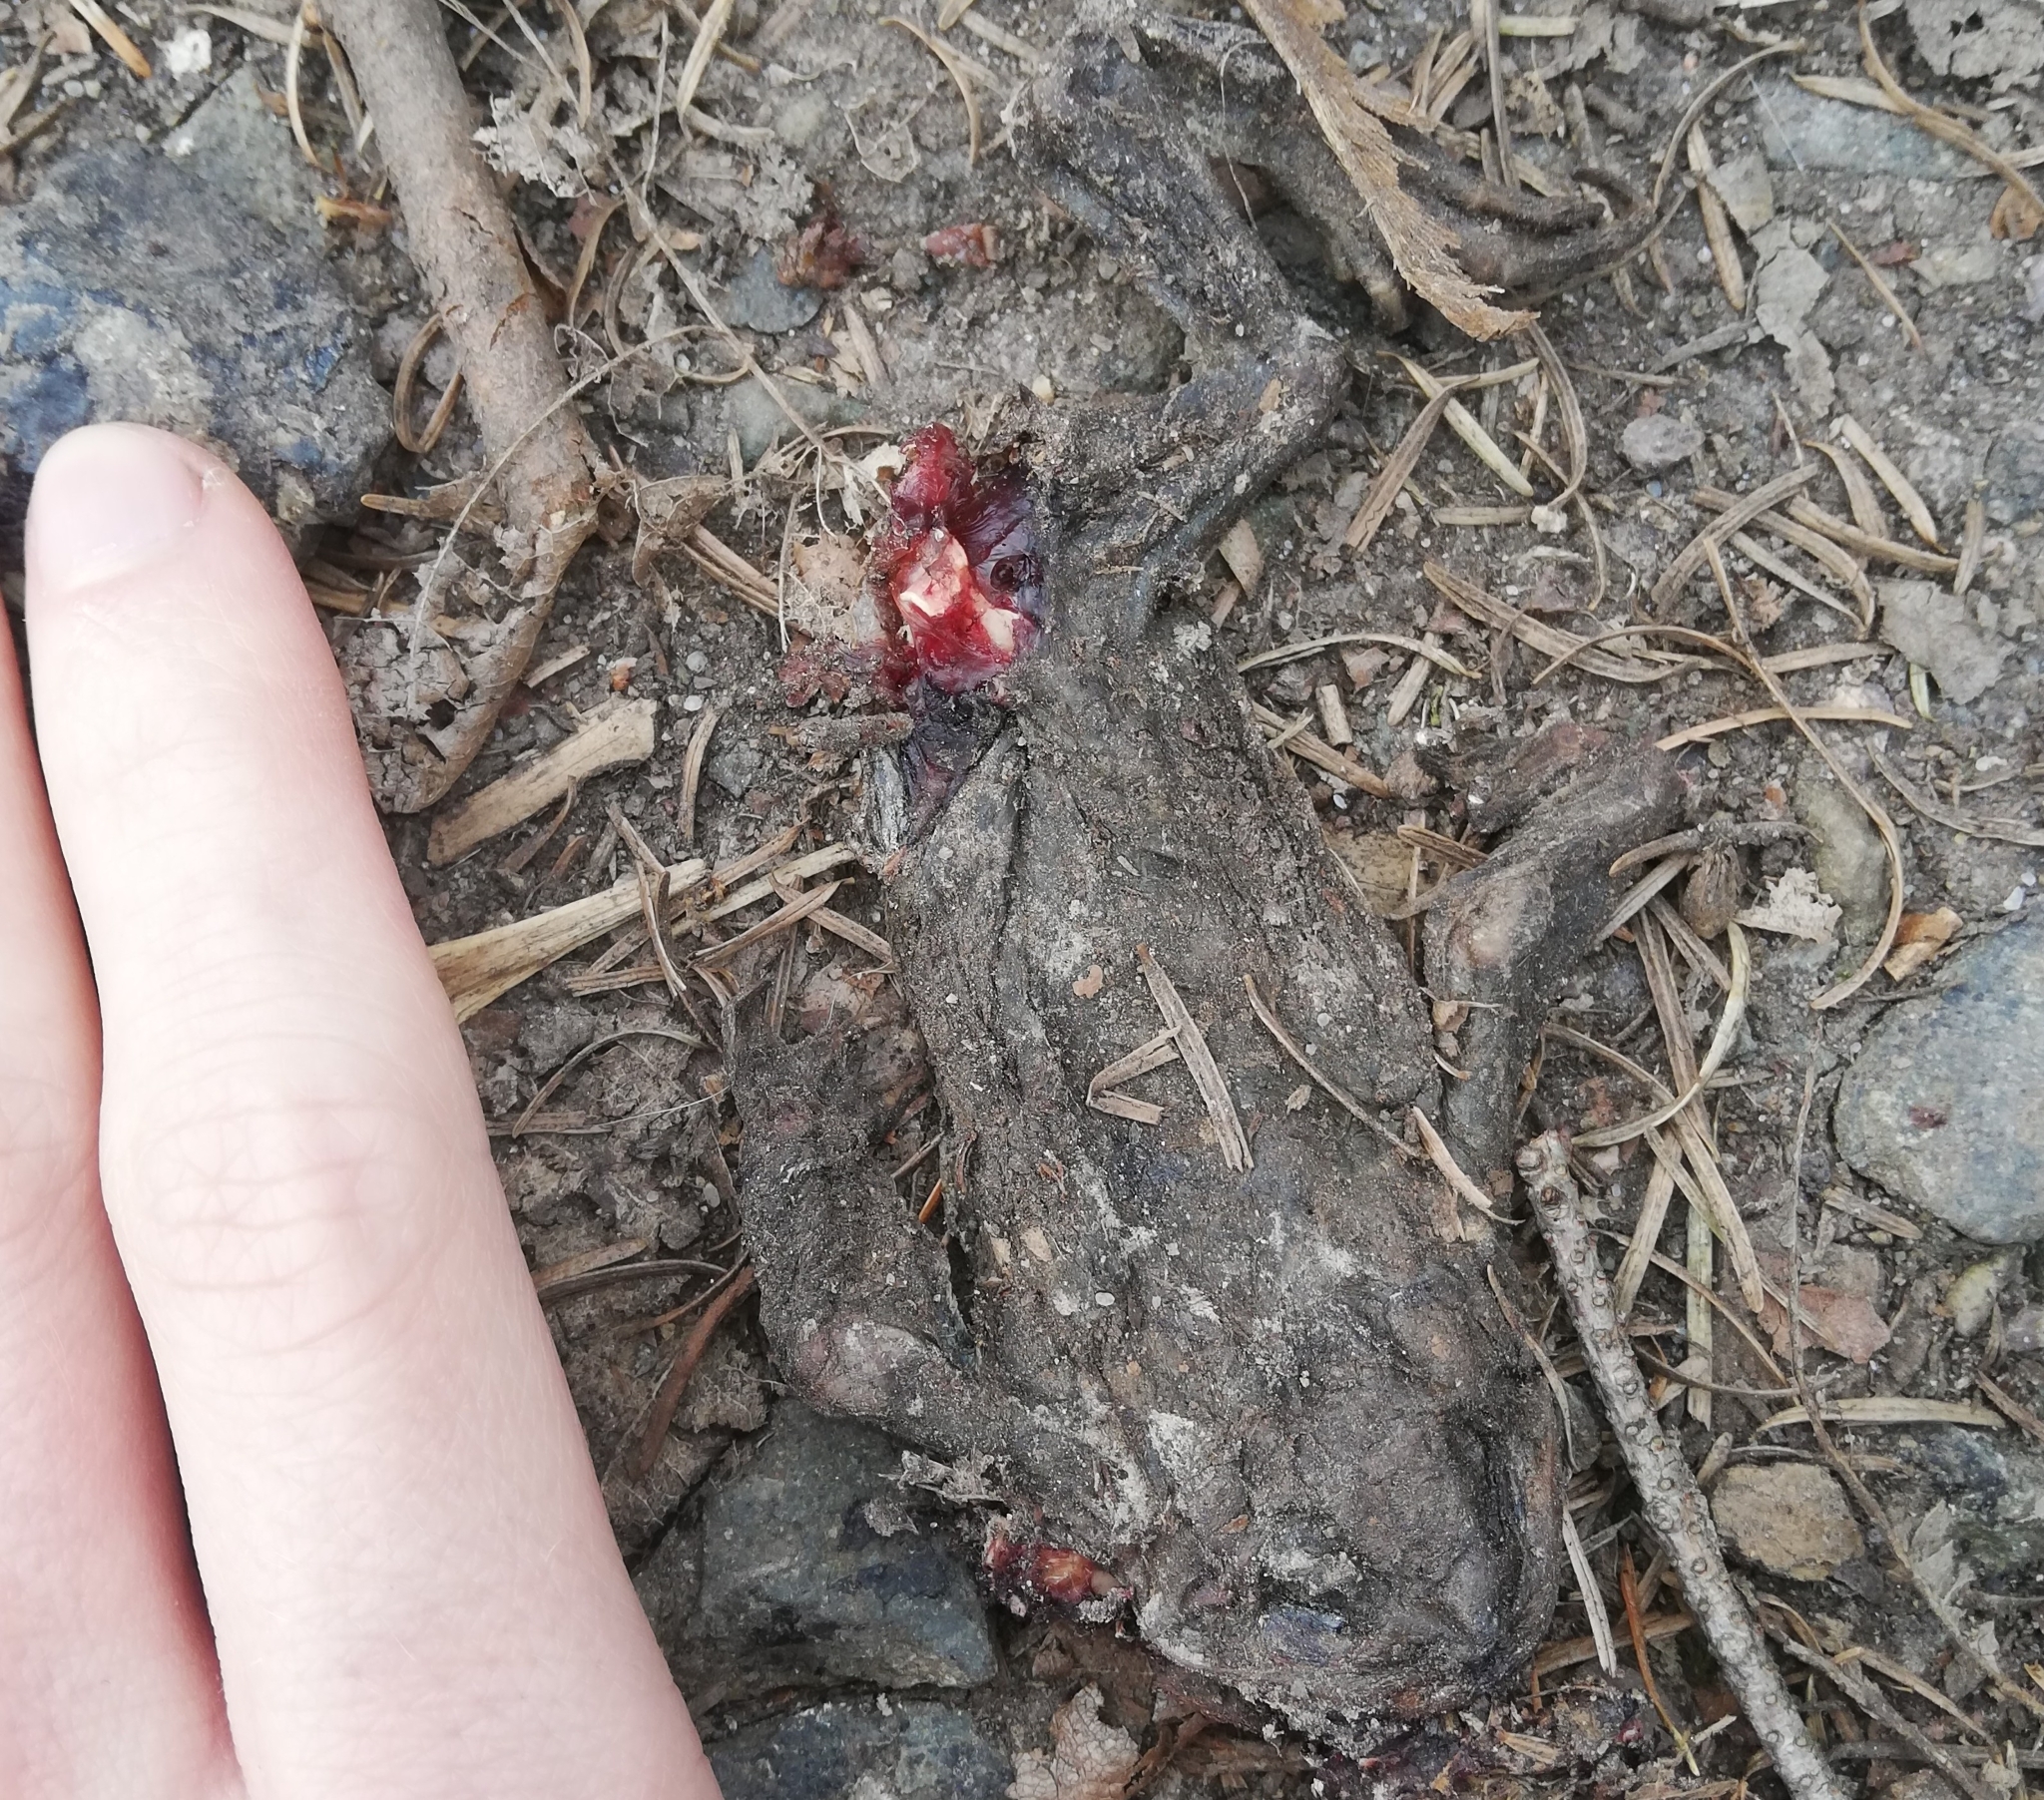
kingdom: Animalia
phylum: Chordata
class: Amphibia
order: Anura
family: Bufonidae
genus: Bufo
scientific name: Bufo bufo
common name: Common toad
